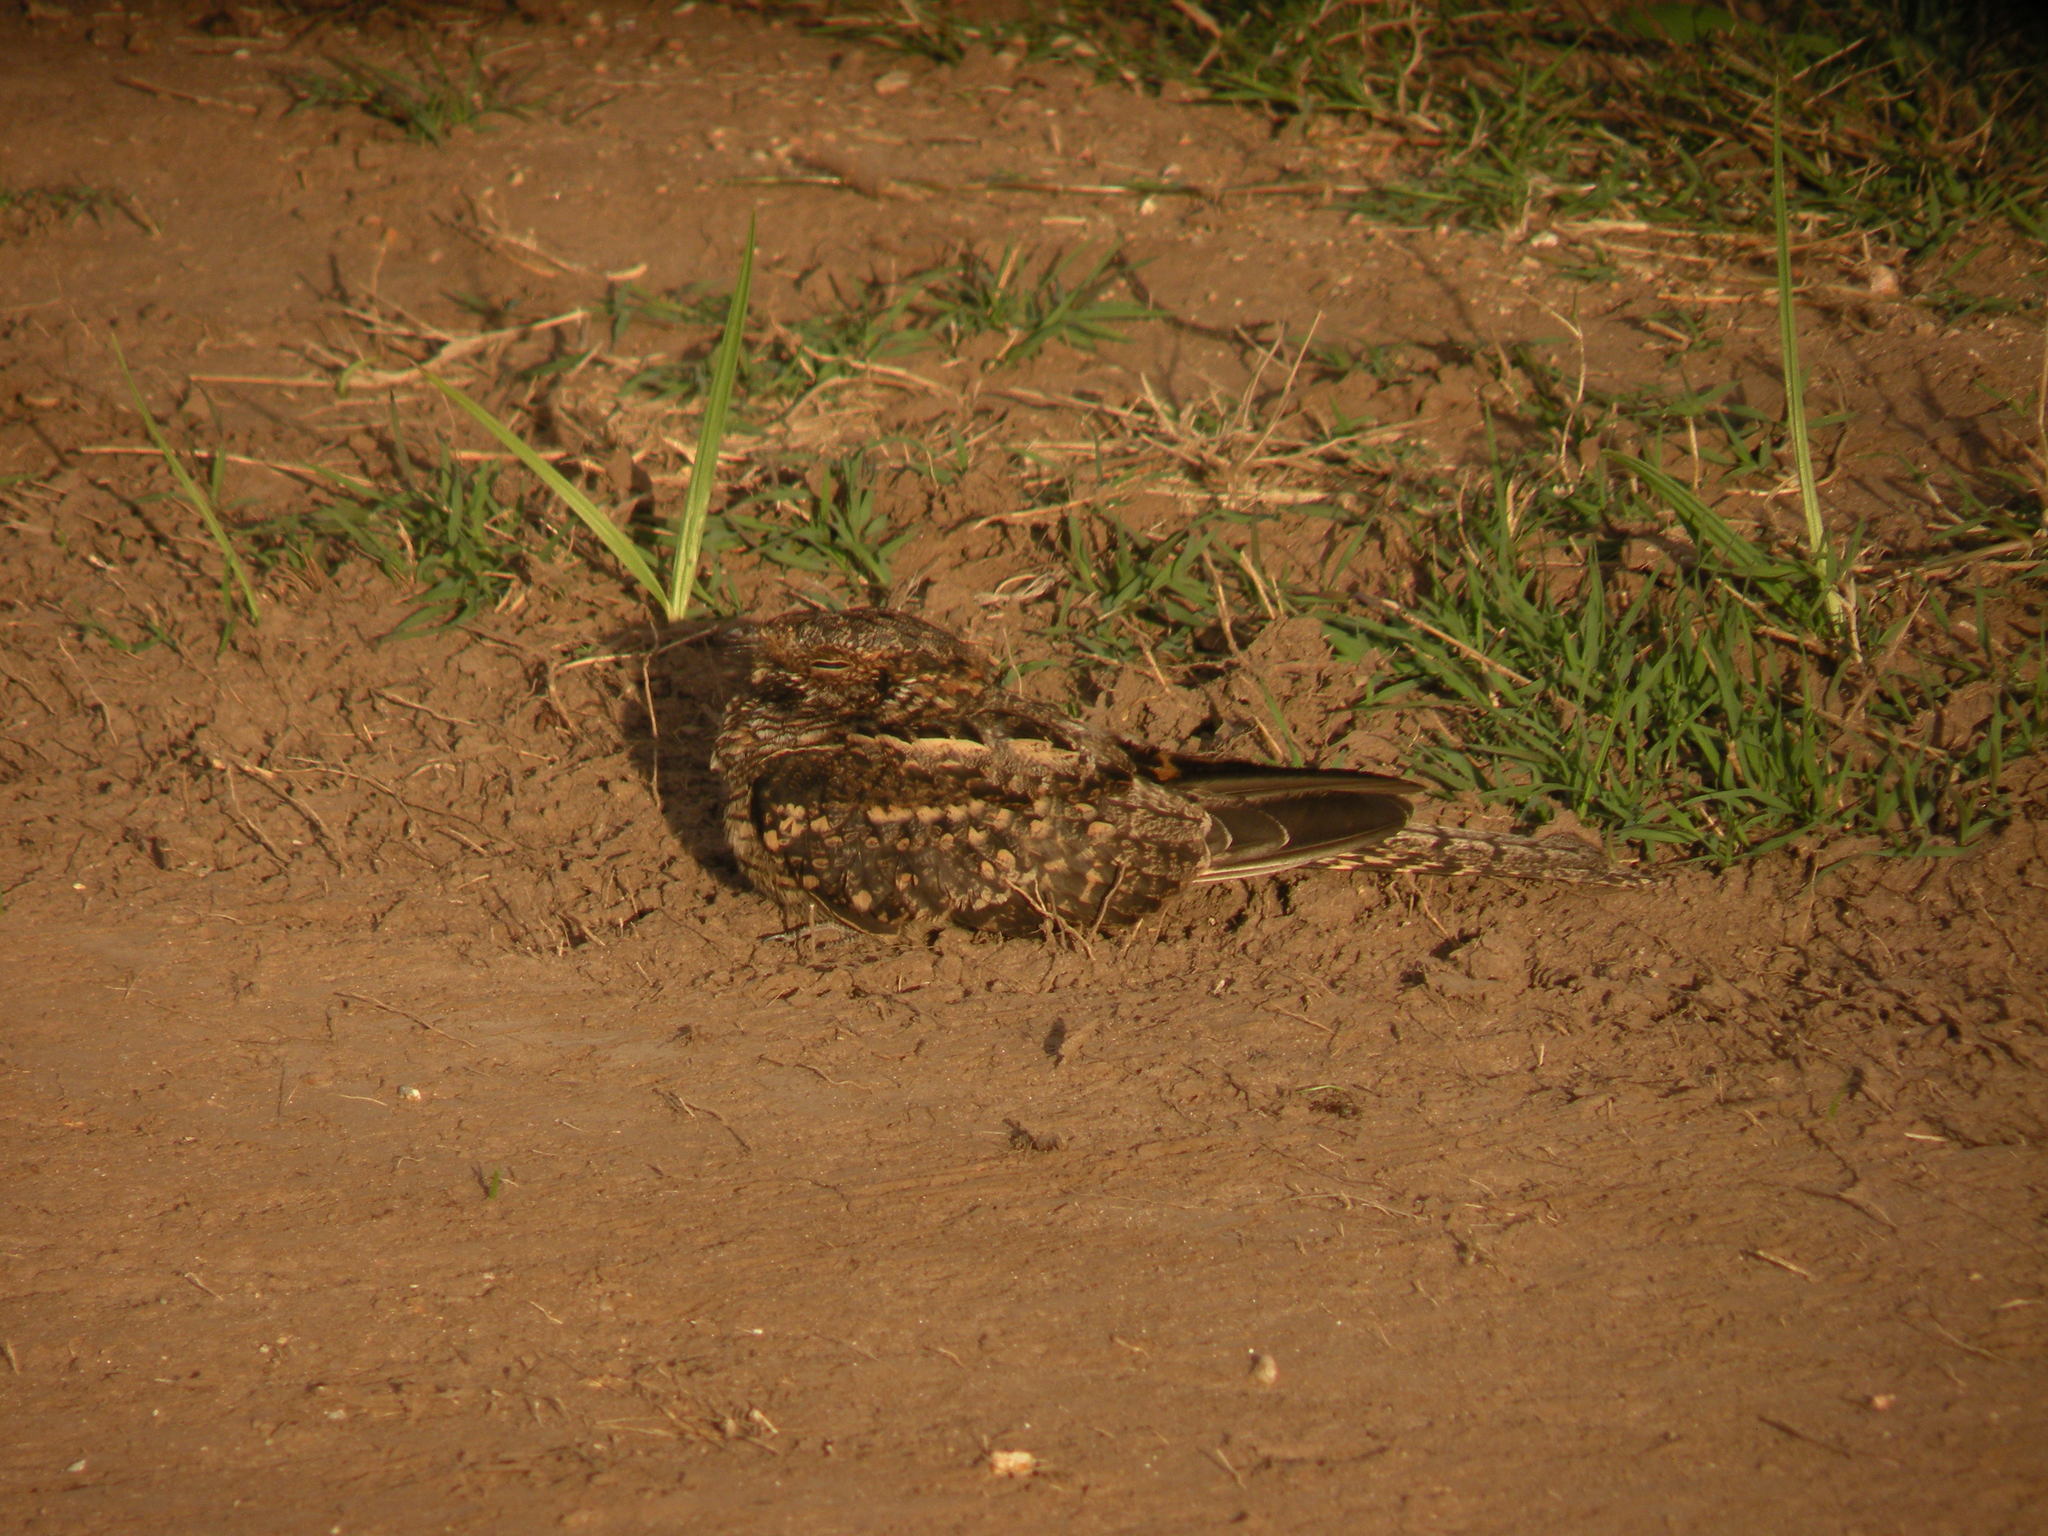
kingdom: Animalia
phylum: Chordata
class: Aves
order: Caprimulgiformes
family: Caprimulgidae
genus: Hydropsalis
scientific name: Hydropsalis torquata
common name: Scissor-tailed nightjar
